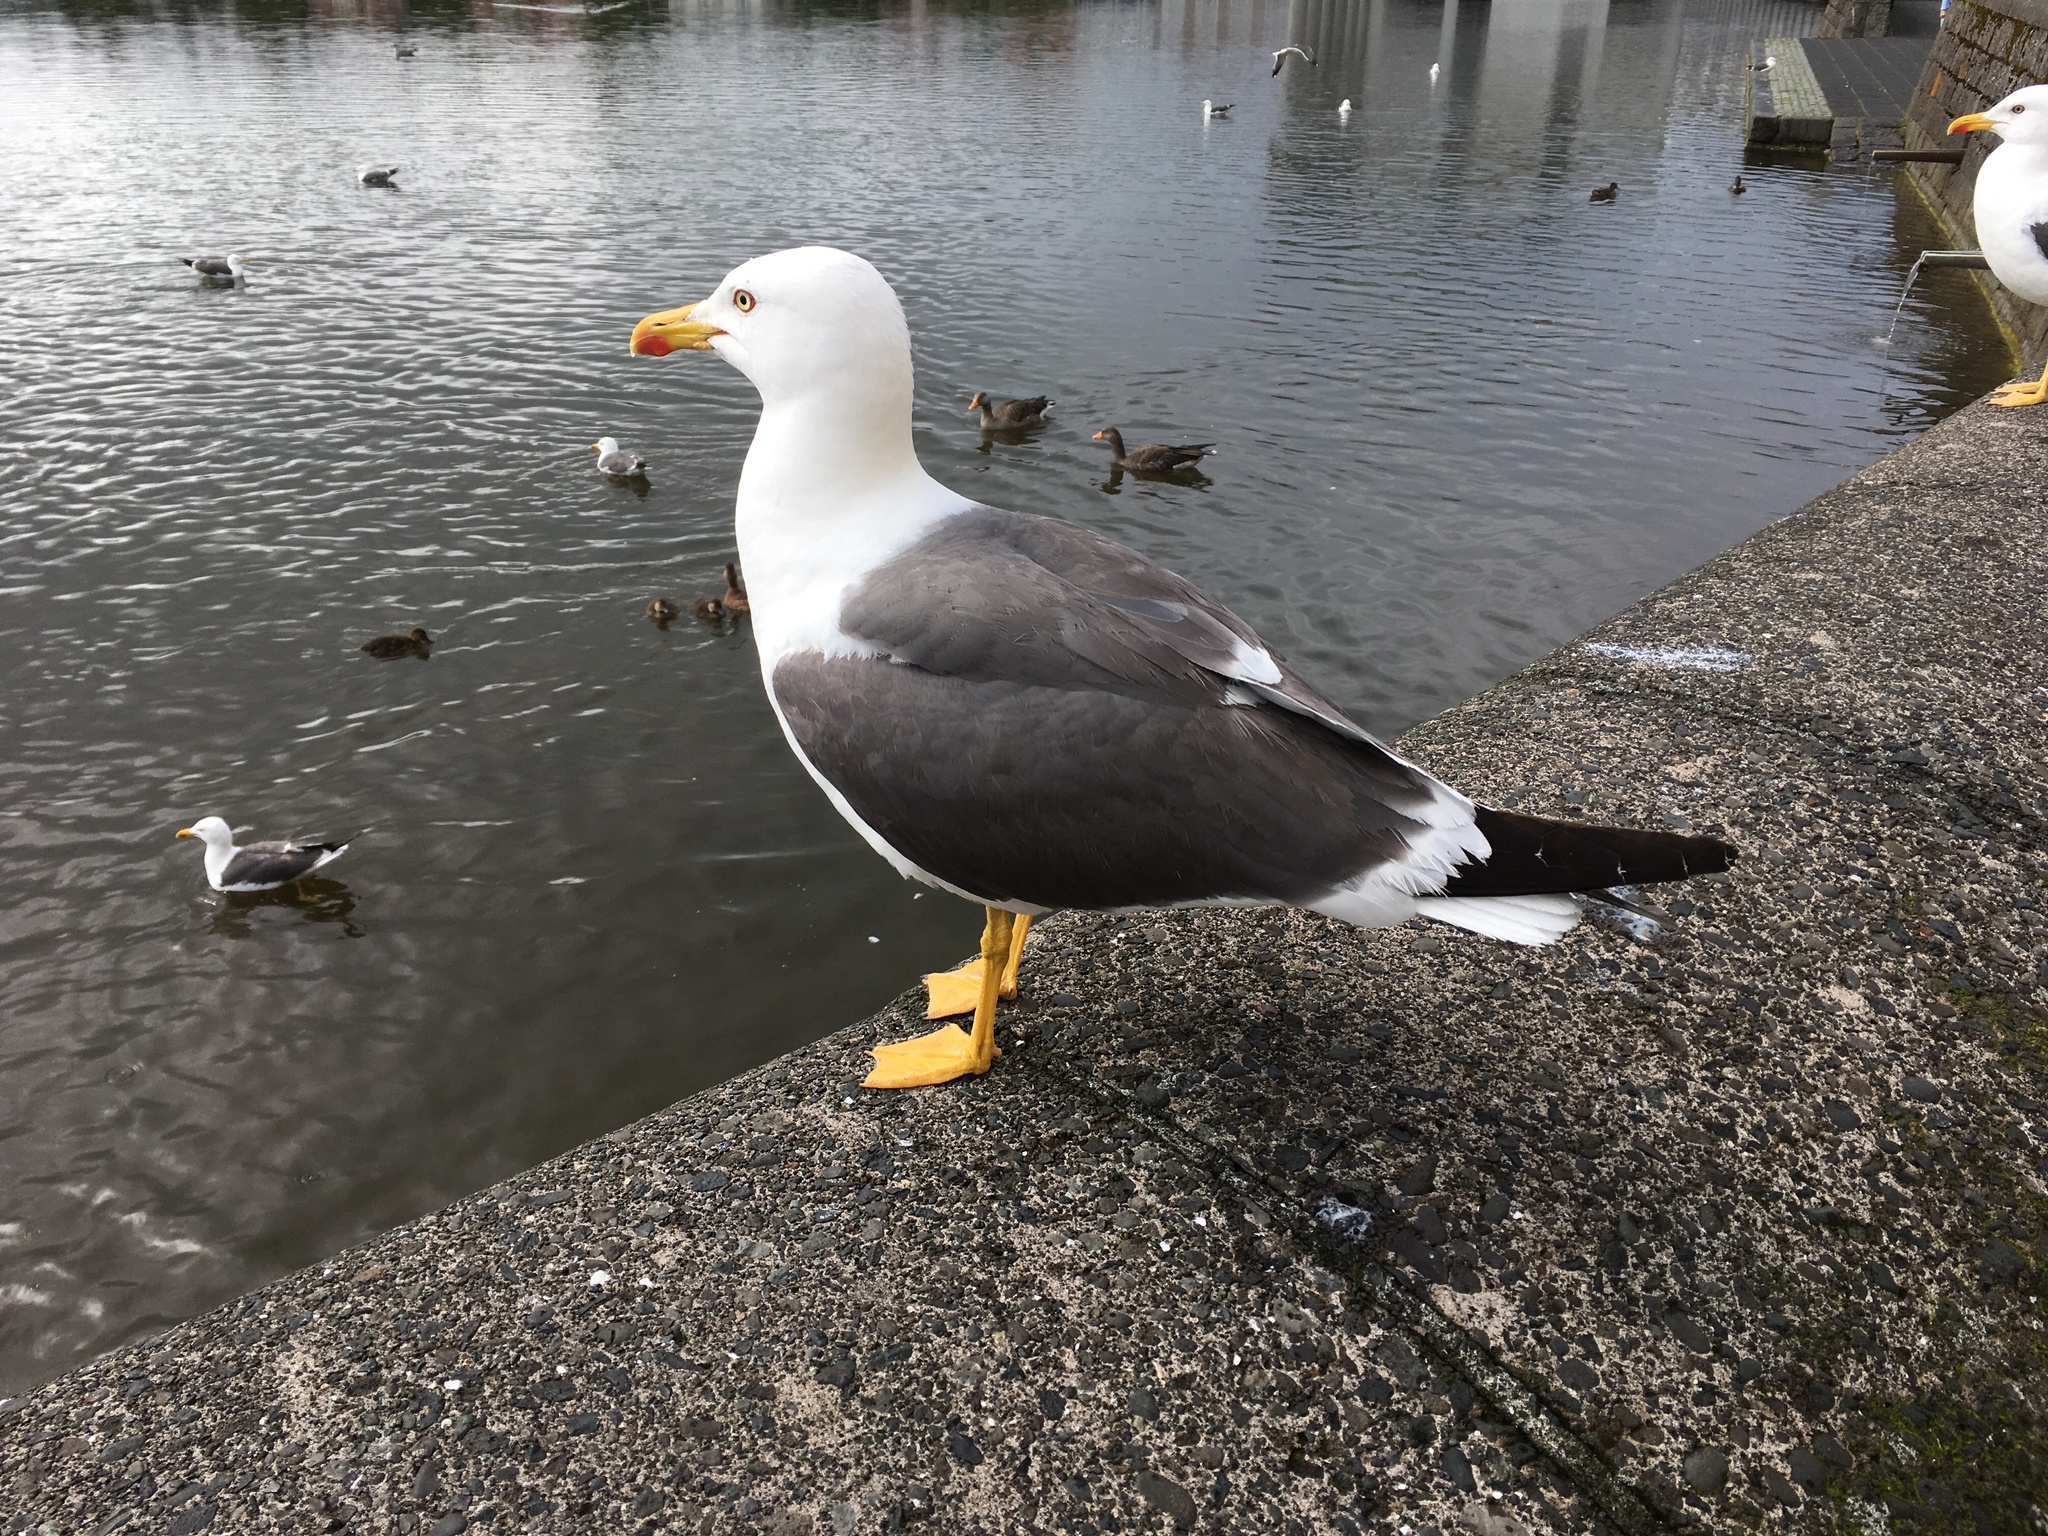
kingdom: Animalia
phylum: Chordata
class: Aves
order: Charadriiformes
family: Laridae
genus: Larus
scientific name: Larus fuscus
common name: Lesser black-backed gull
